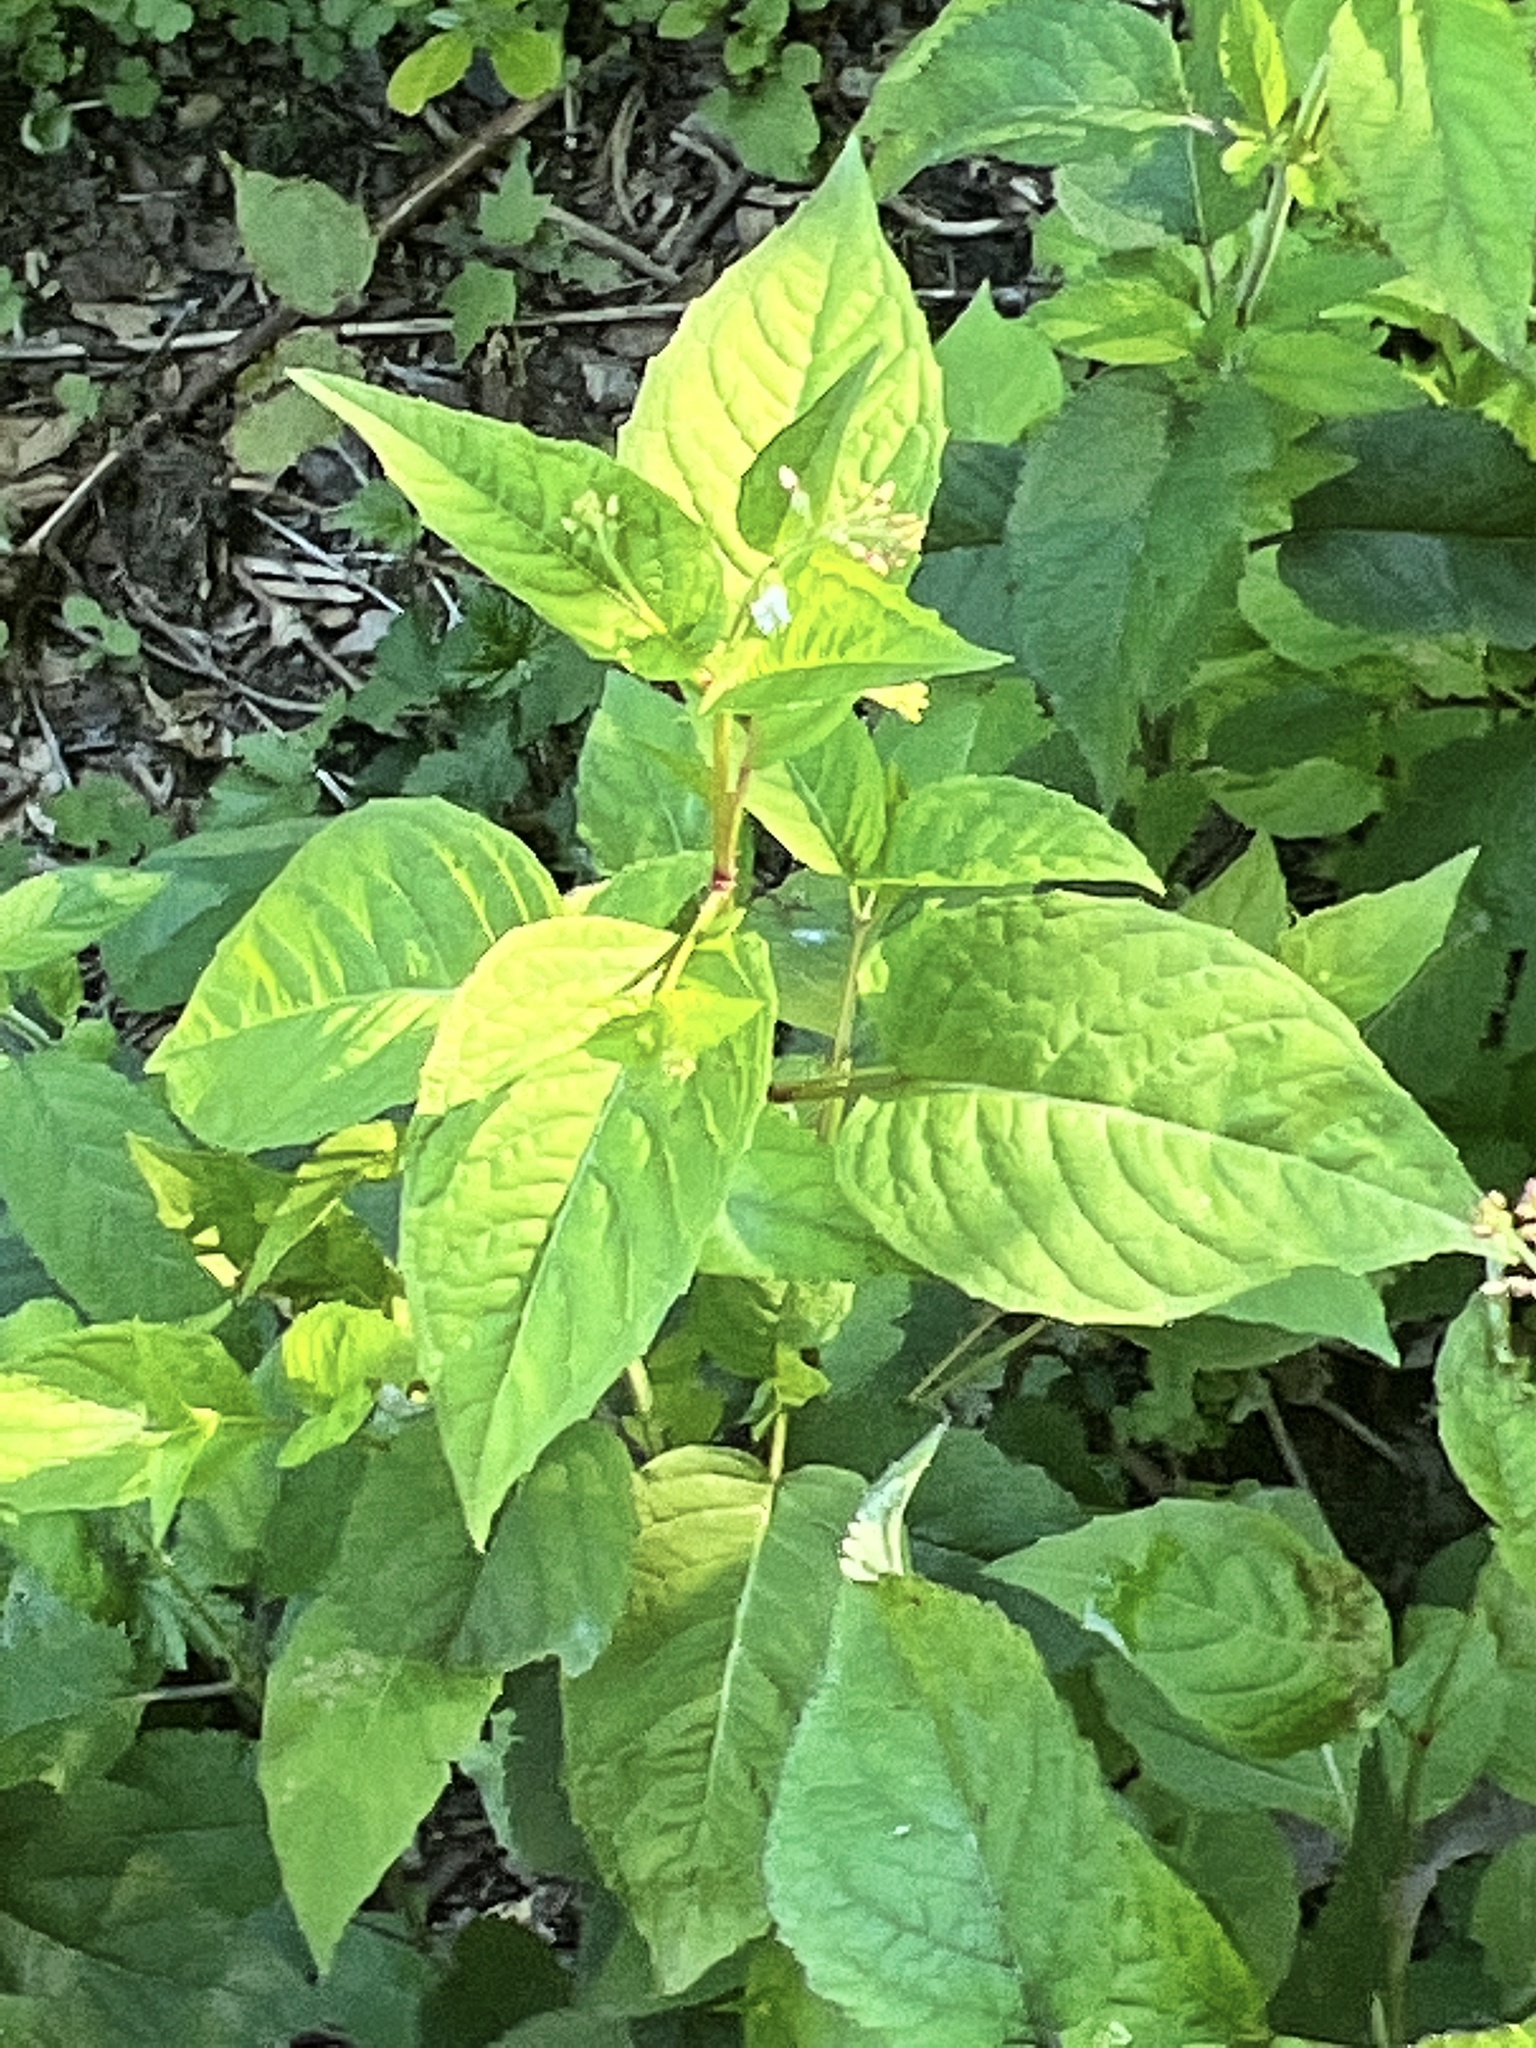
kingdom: Plantae
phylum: Tracheophyta
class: Magnoliopsida
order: Myrtales
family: Onagraceae
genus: Circaea
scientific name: Circaea canadensis
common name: Broad-leaved enchanter's nightshade
